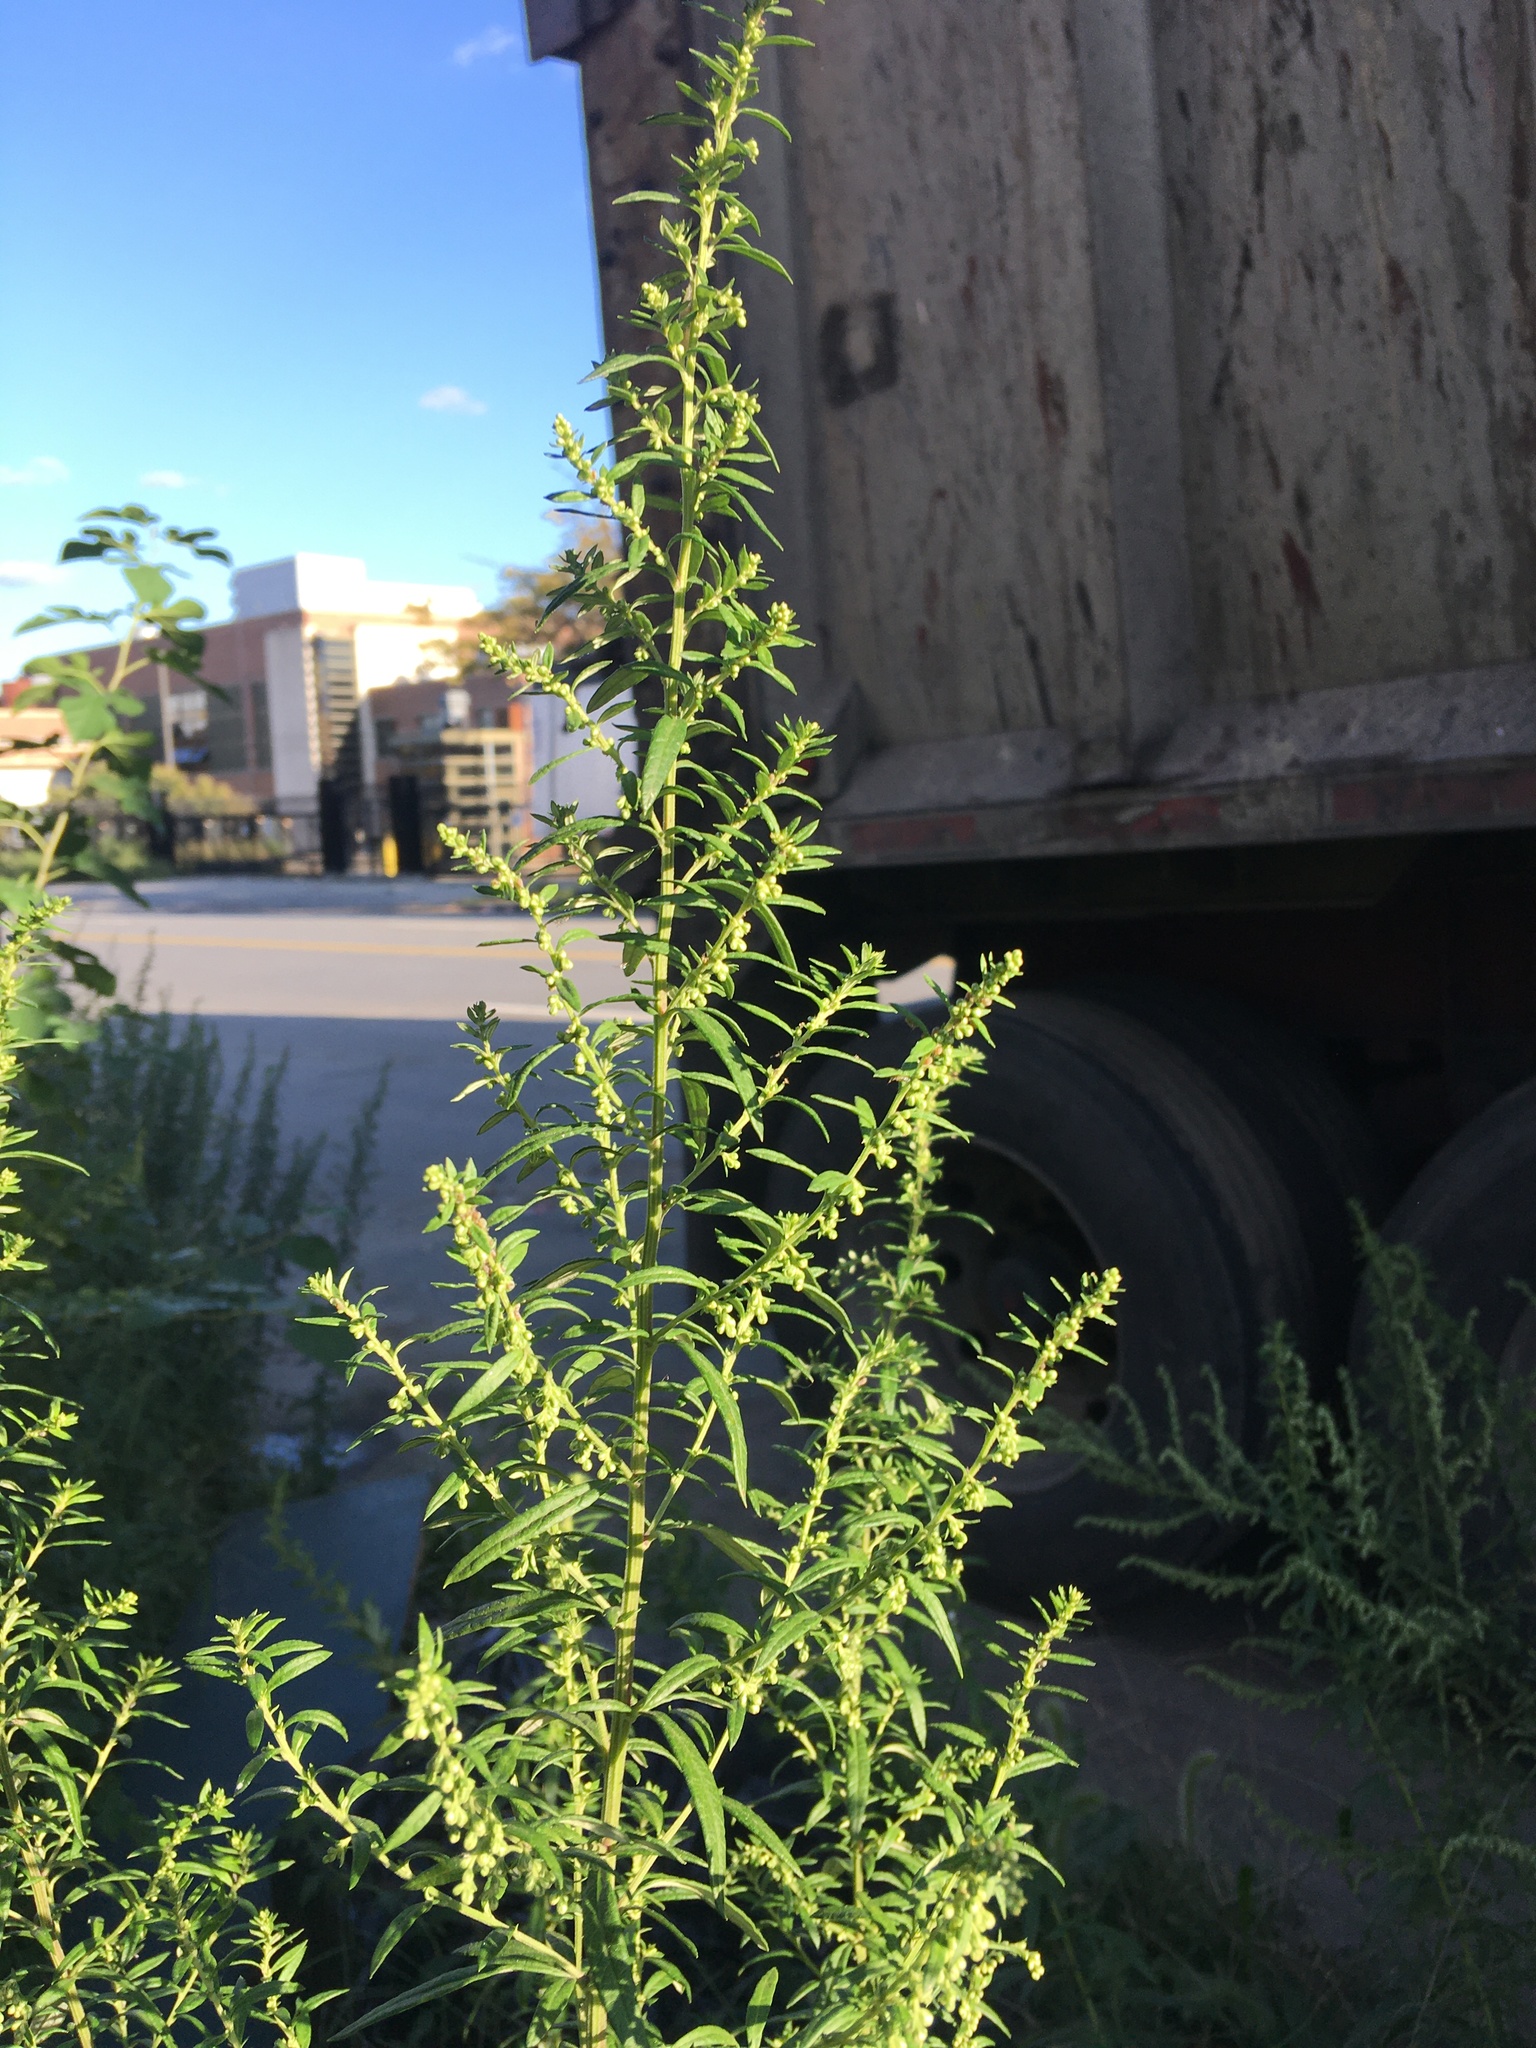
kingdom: Plantae
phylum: Tracheophyta
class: Magnoliopsida
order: Asterales
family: Asteraceae
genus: Artemisia
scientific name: Artemisia vulgaris
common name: Mugwort
